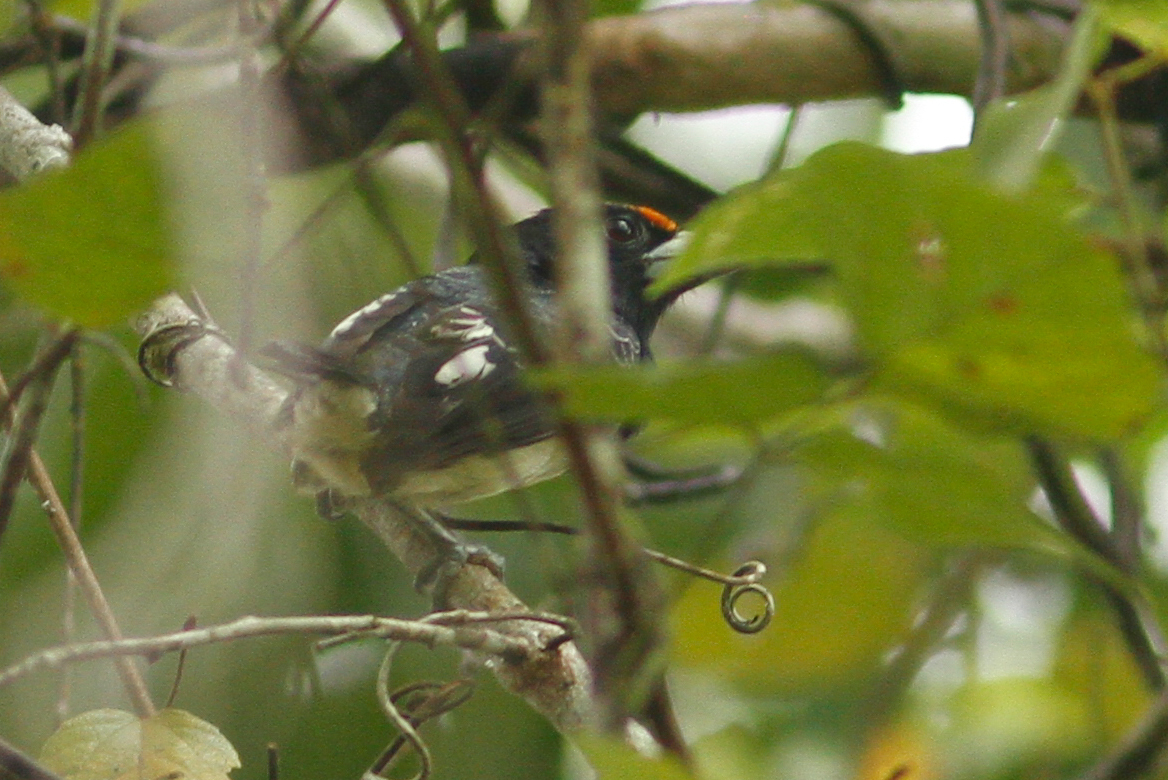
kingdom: Animalia
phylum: Chordata
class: Aves
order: Piciformes
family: Capitonidae
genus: Capito
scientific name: Capito squamatus
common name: Orange-fronted barbet
